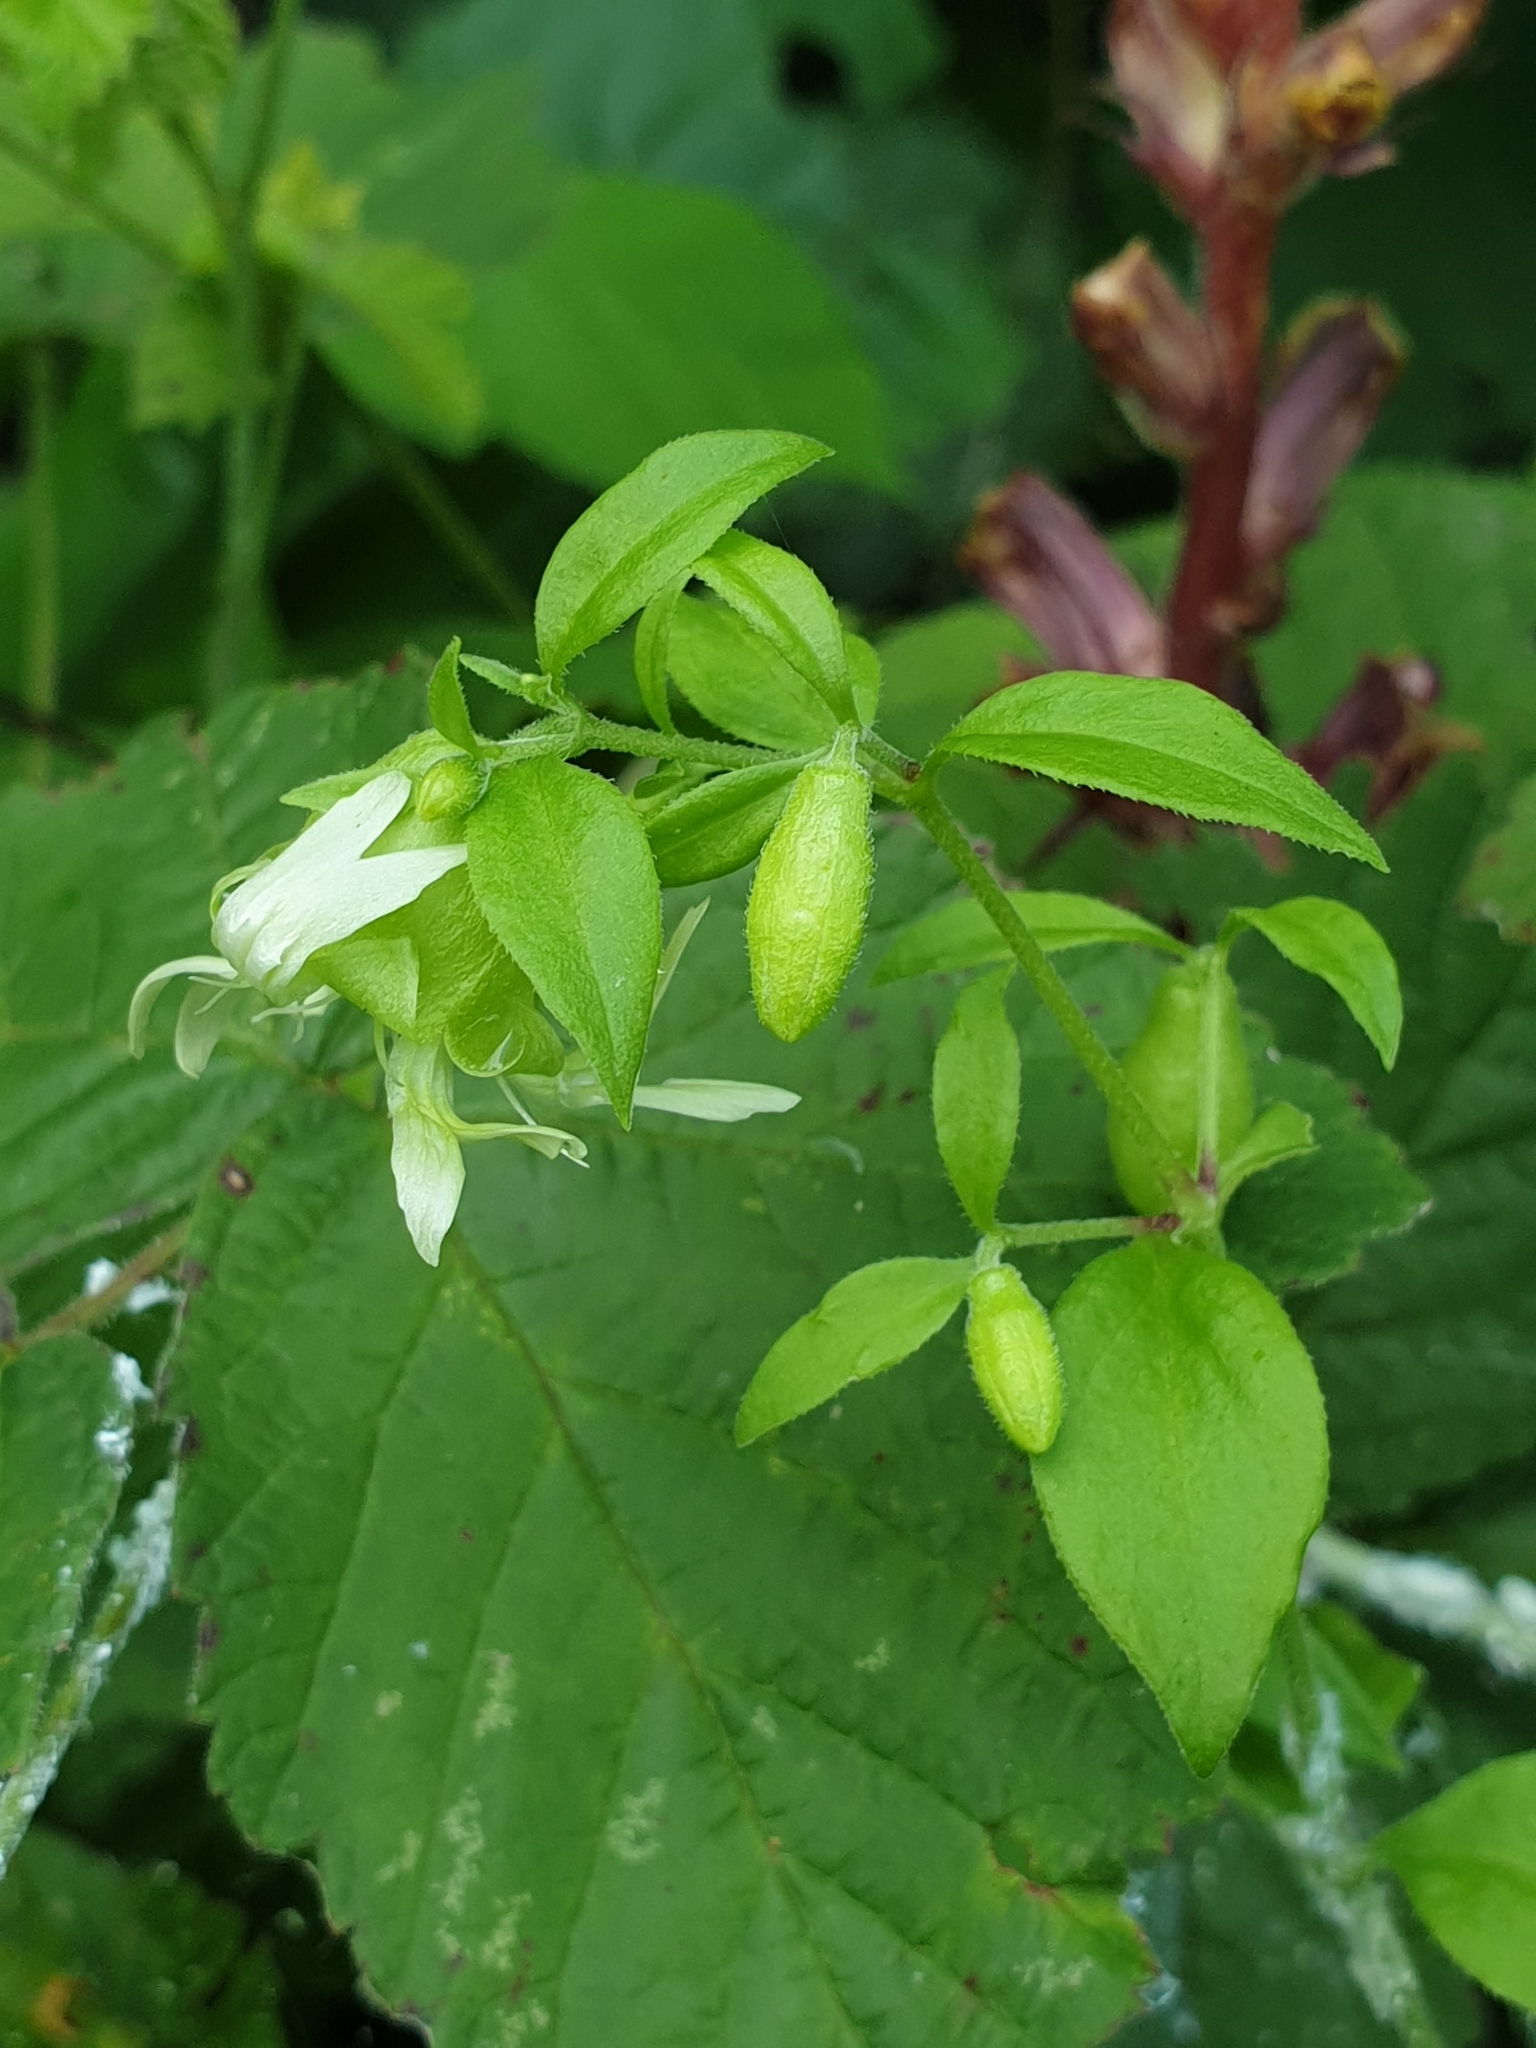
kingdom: Plantae
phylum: Tracheophyta
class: Magnoliopsida
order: Caryophyllales
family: Caryophyllaceae
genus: Silene
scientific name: Silene baccifera
